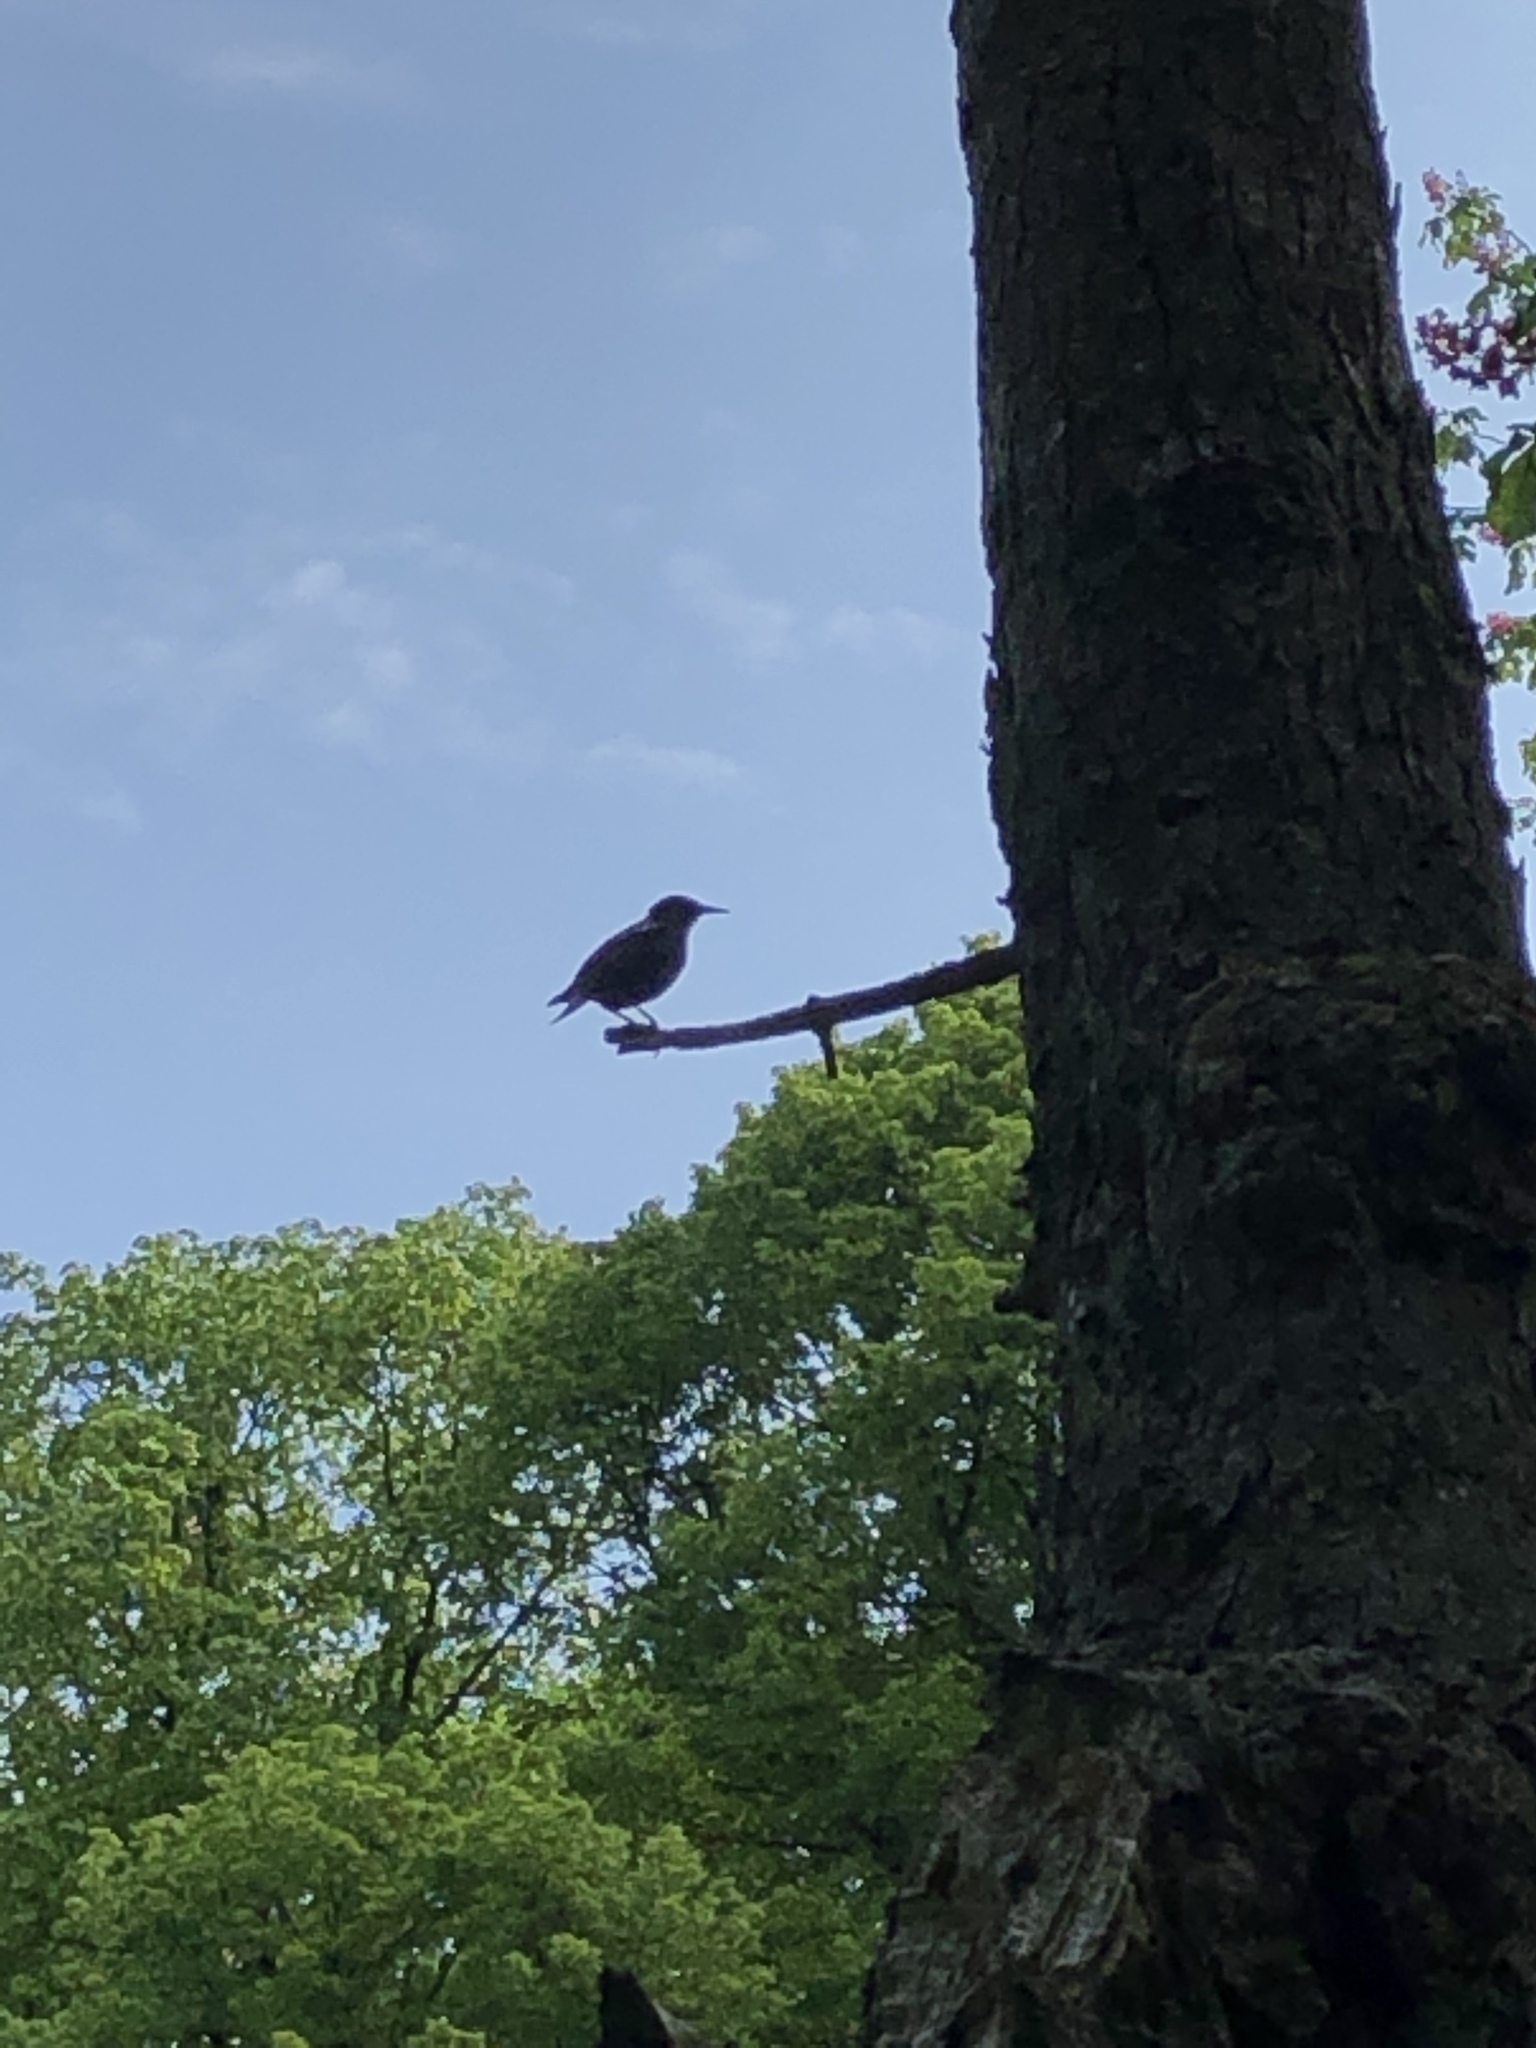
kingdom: Animalia
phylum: Chordata
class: Aves
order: Passeriformes
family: Sturnidae
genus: Sturnus
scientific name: Sturnus vulgaris
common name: Common starling
